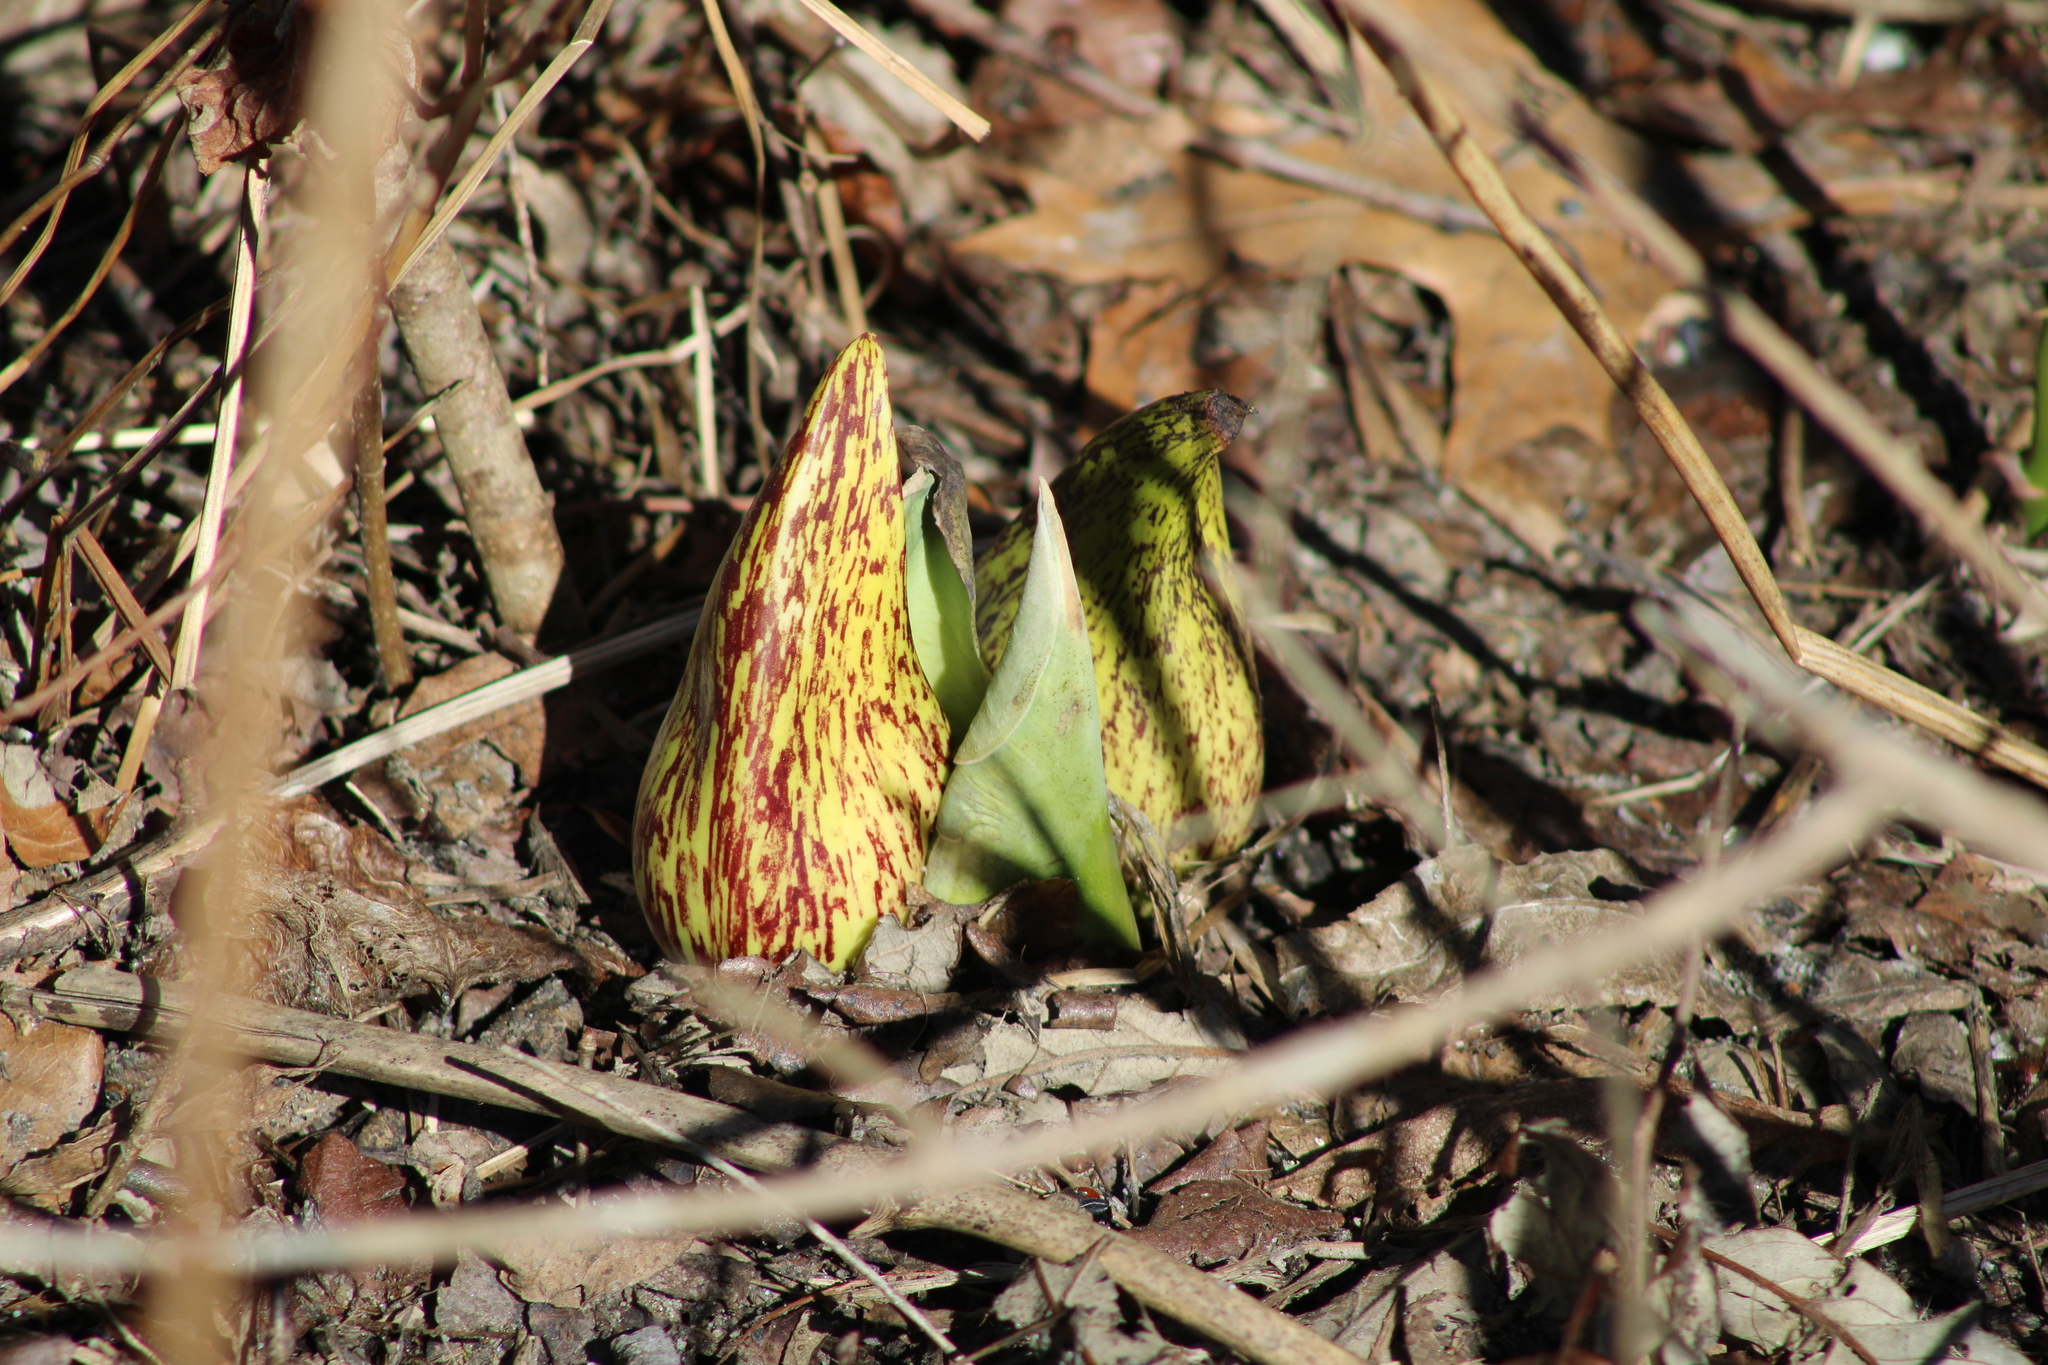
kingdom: Plantae
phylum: Tracheophyta
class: Liliopsida
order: Alismatales
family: Araceae
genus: Symplocarpus
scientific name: Symplocarpus foetidus
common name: Eastern skunk cabbage
